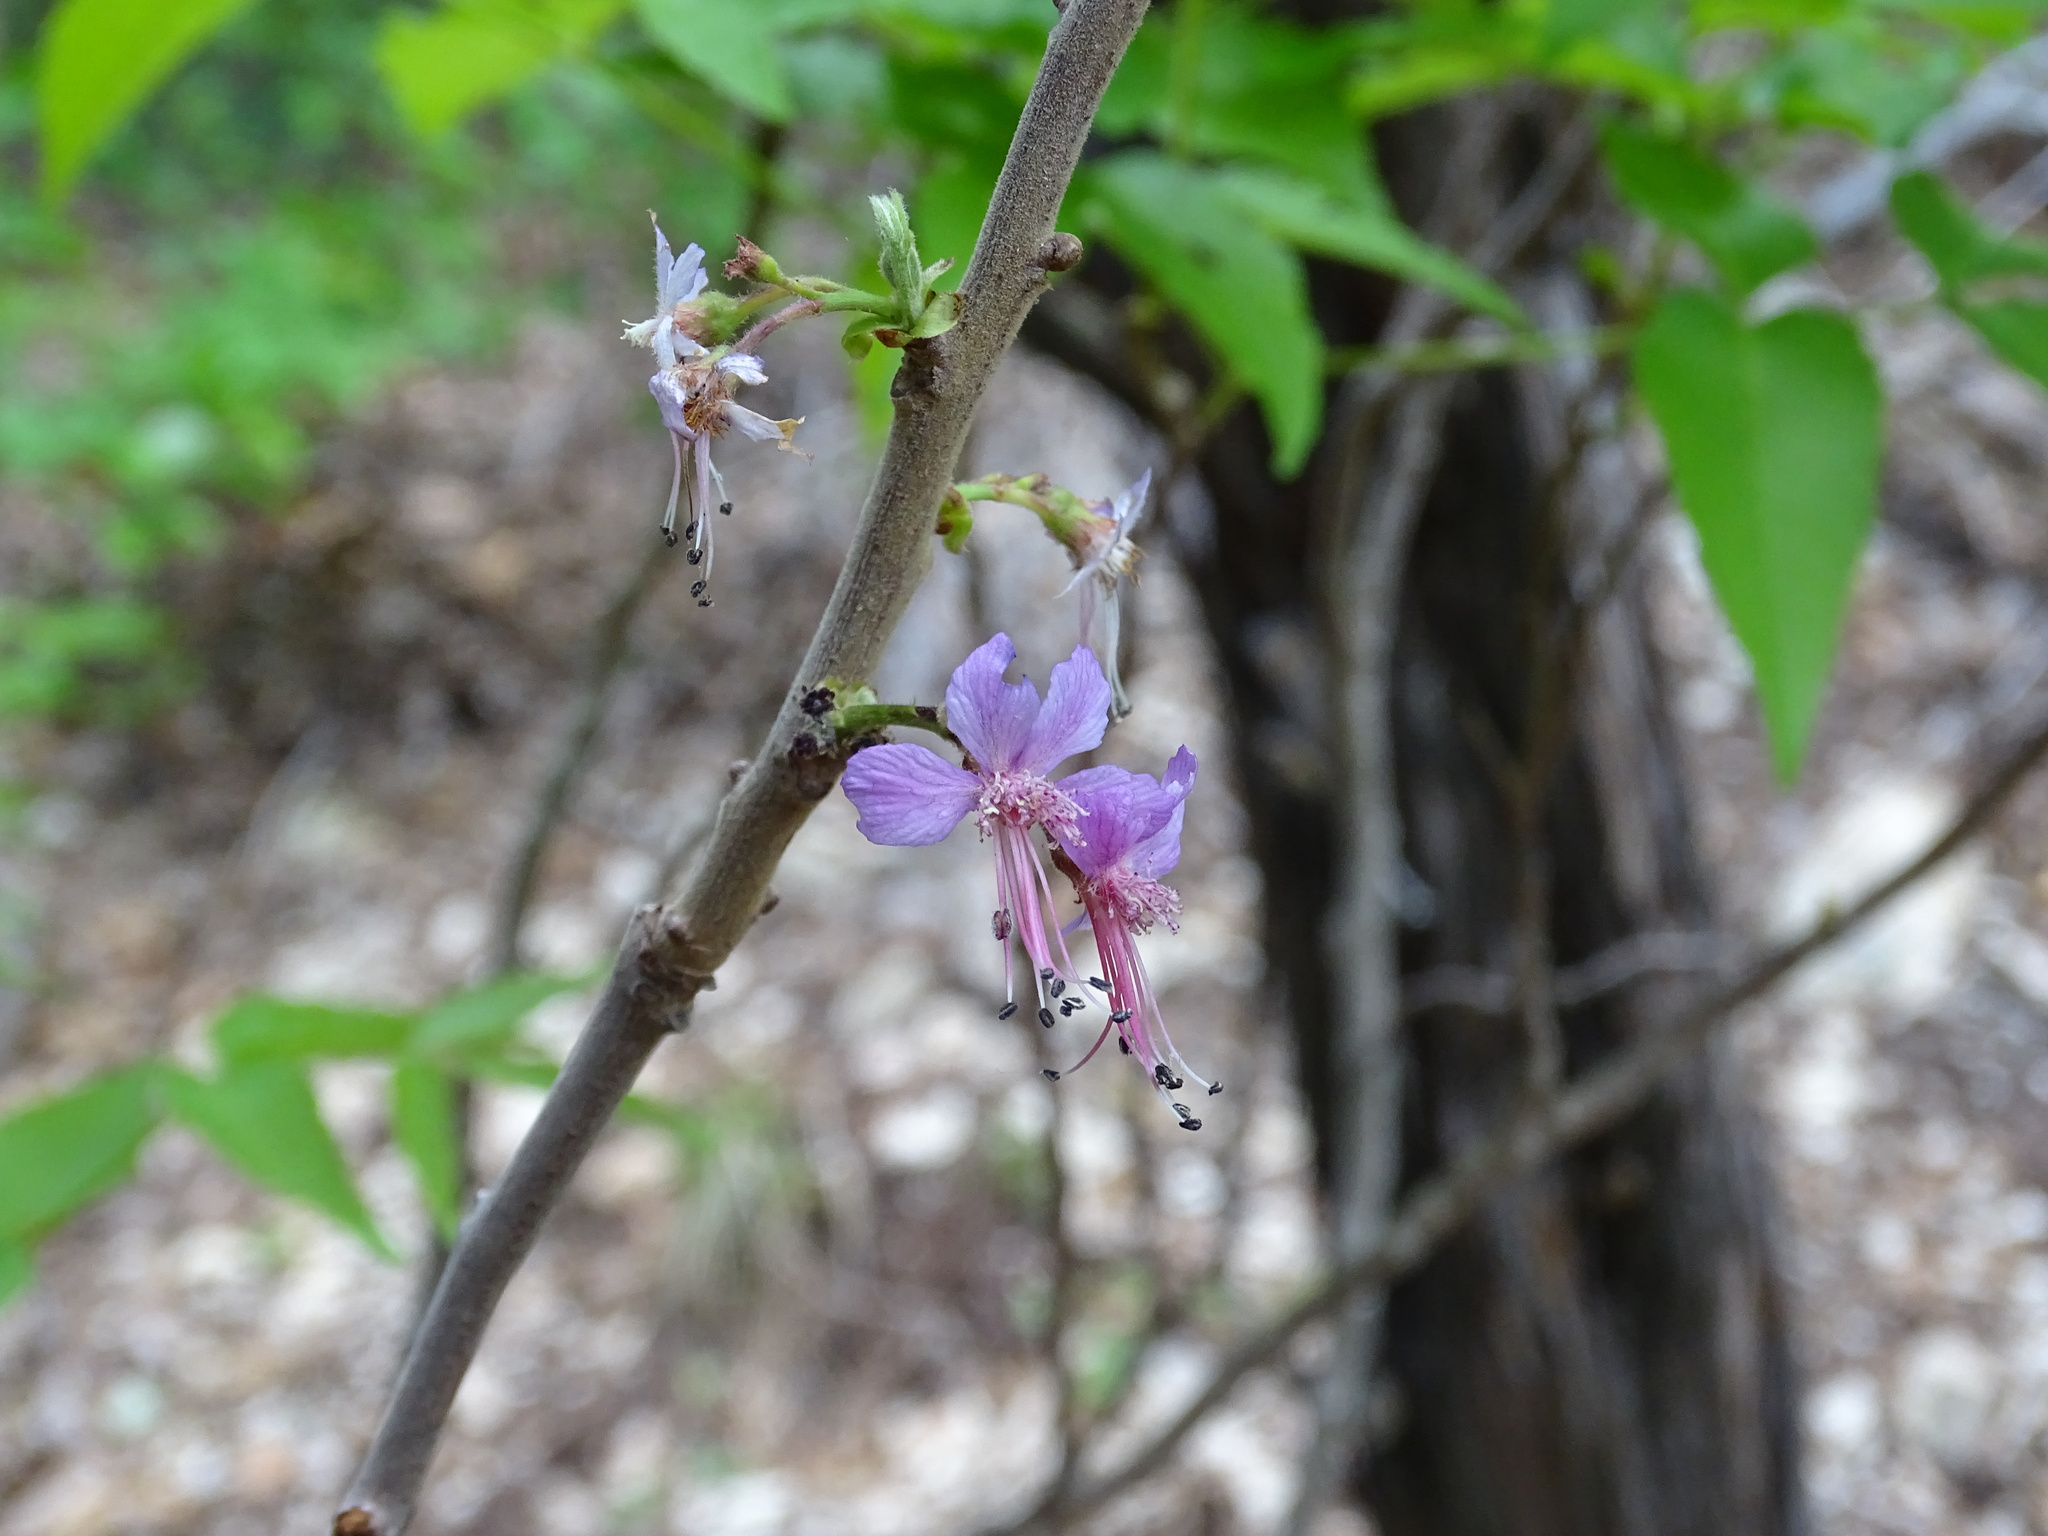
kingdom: Plantae
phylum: Tracheophyta
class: Magnoliopsida
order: Sapindales
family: Sapindaceae
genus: Ungnadia
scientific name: Ungnadia speciosa
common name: Texas-buckeye
